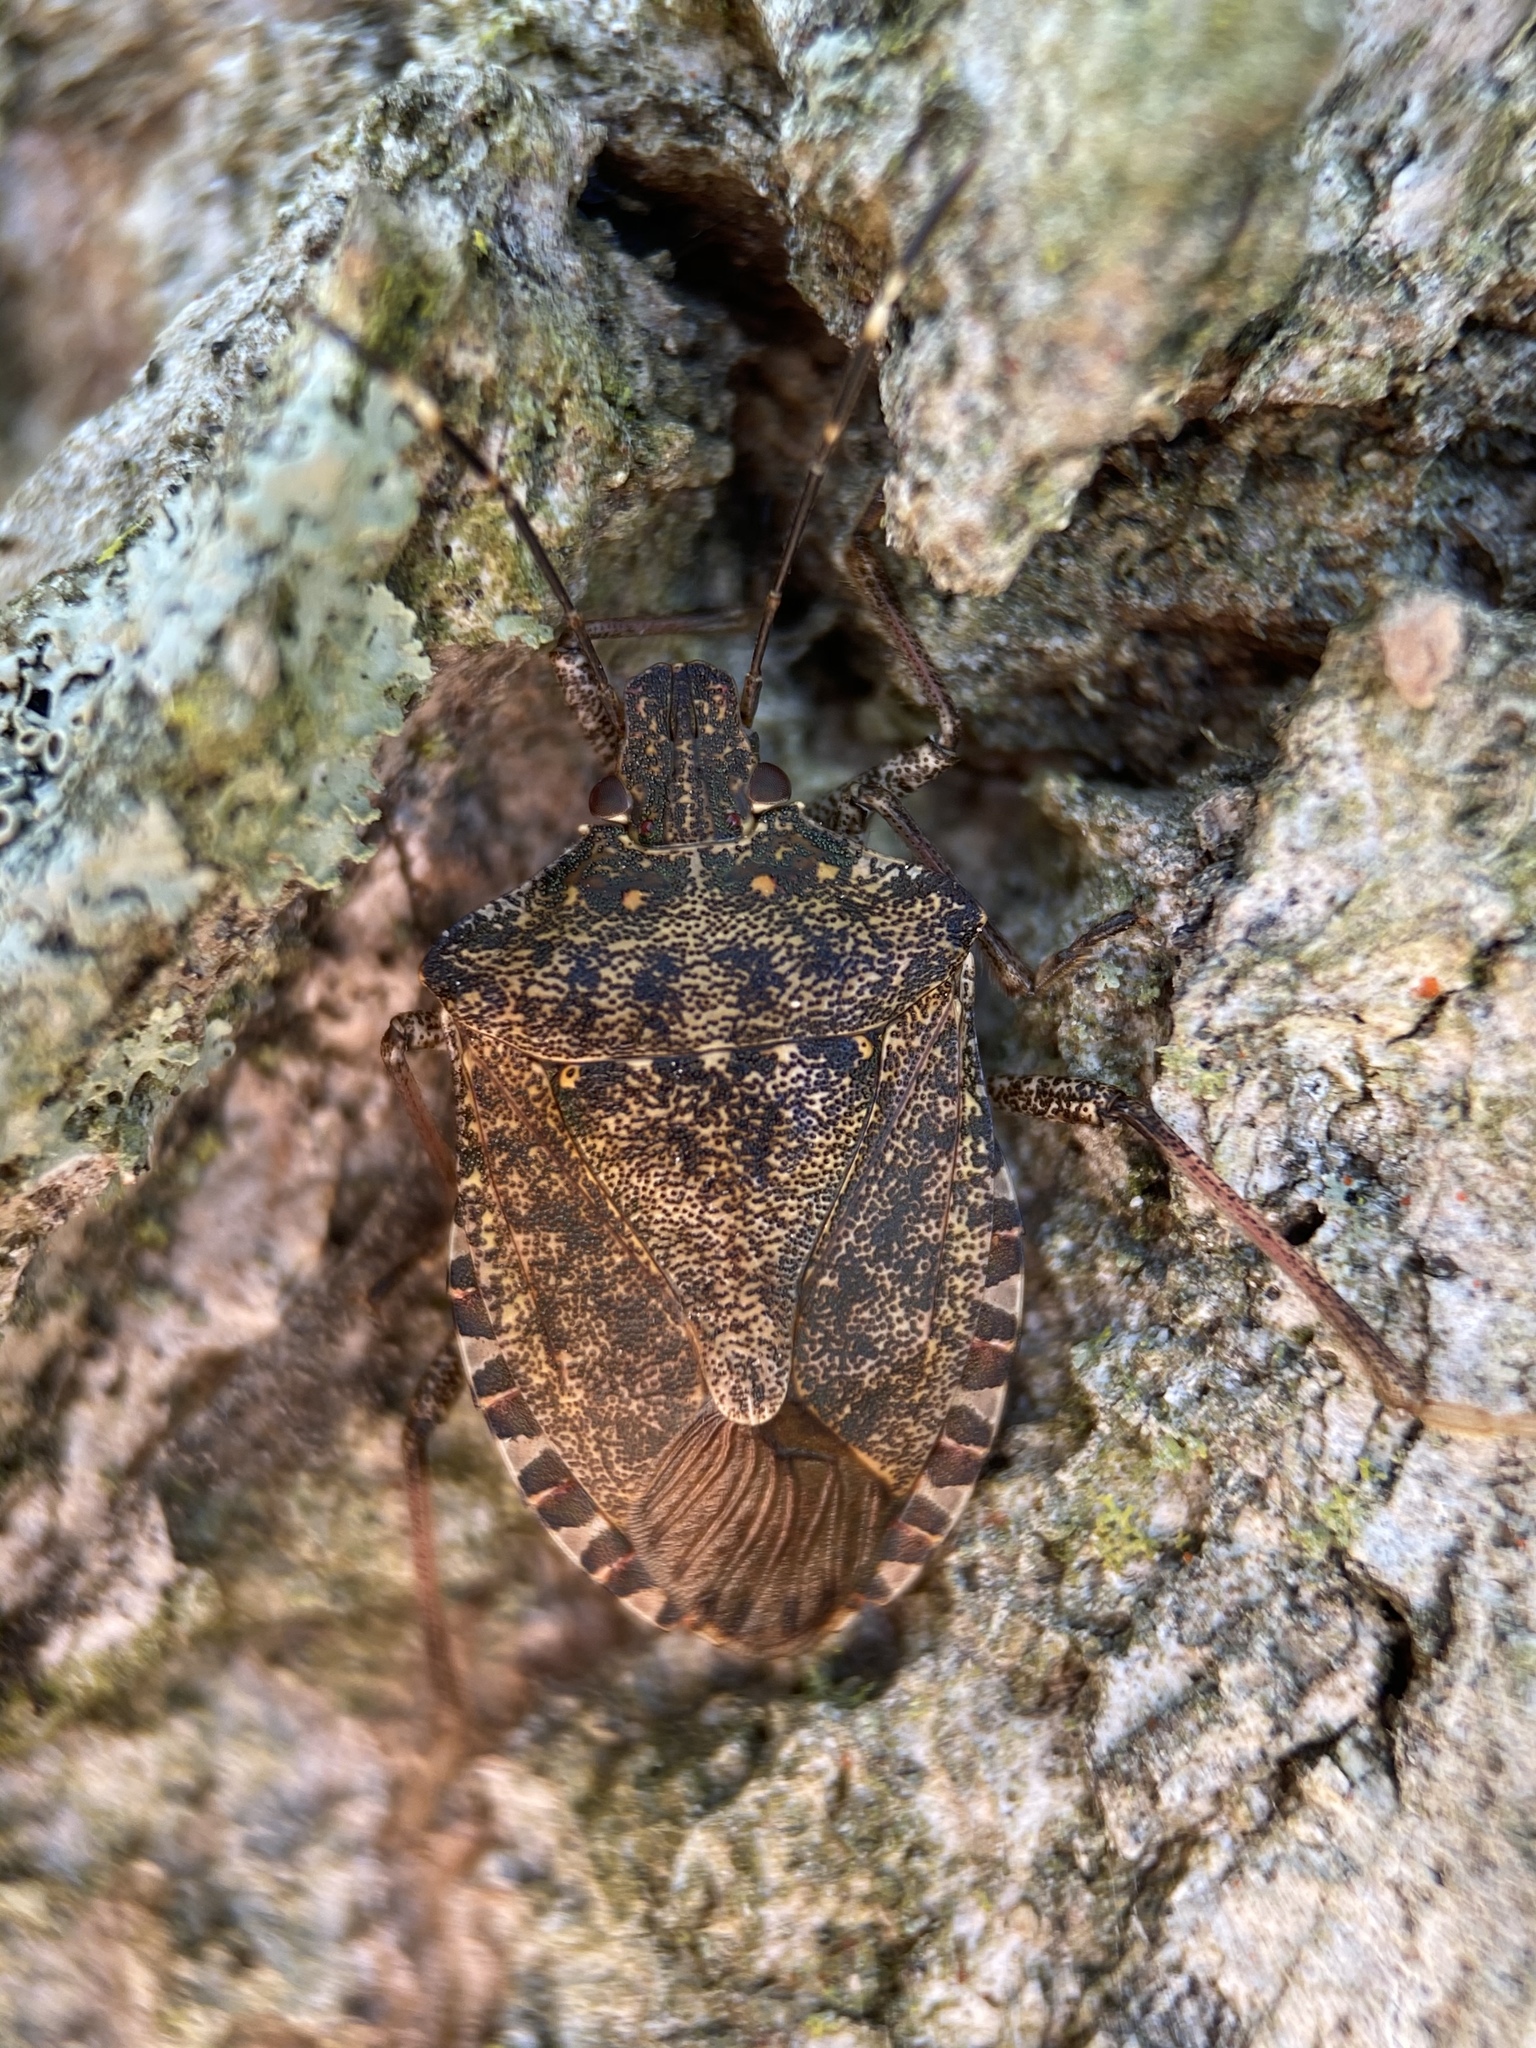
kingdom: Animalia
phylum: Arthropoda
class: Insecta
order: Hemiptera
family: Pentatomidae
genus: Halyomorpha
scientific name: Halyomorpha halys
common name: Brown marmorated stink bug
